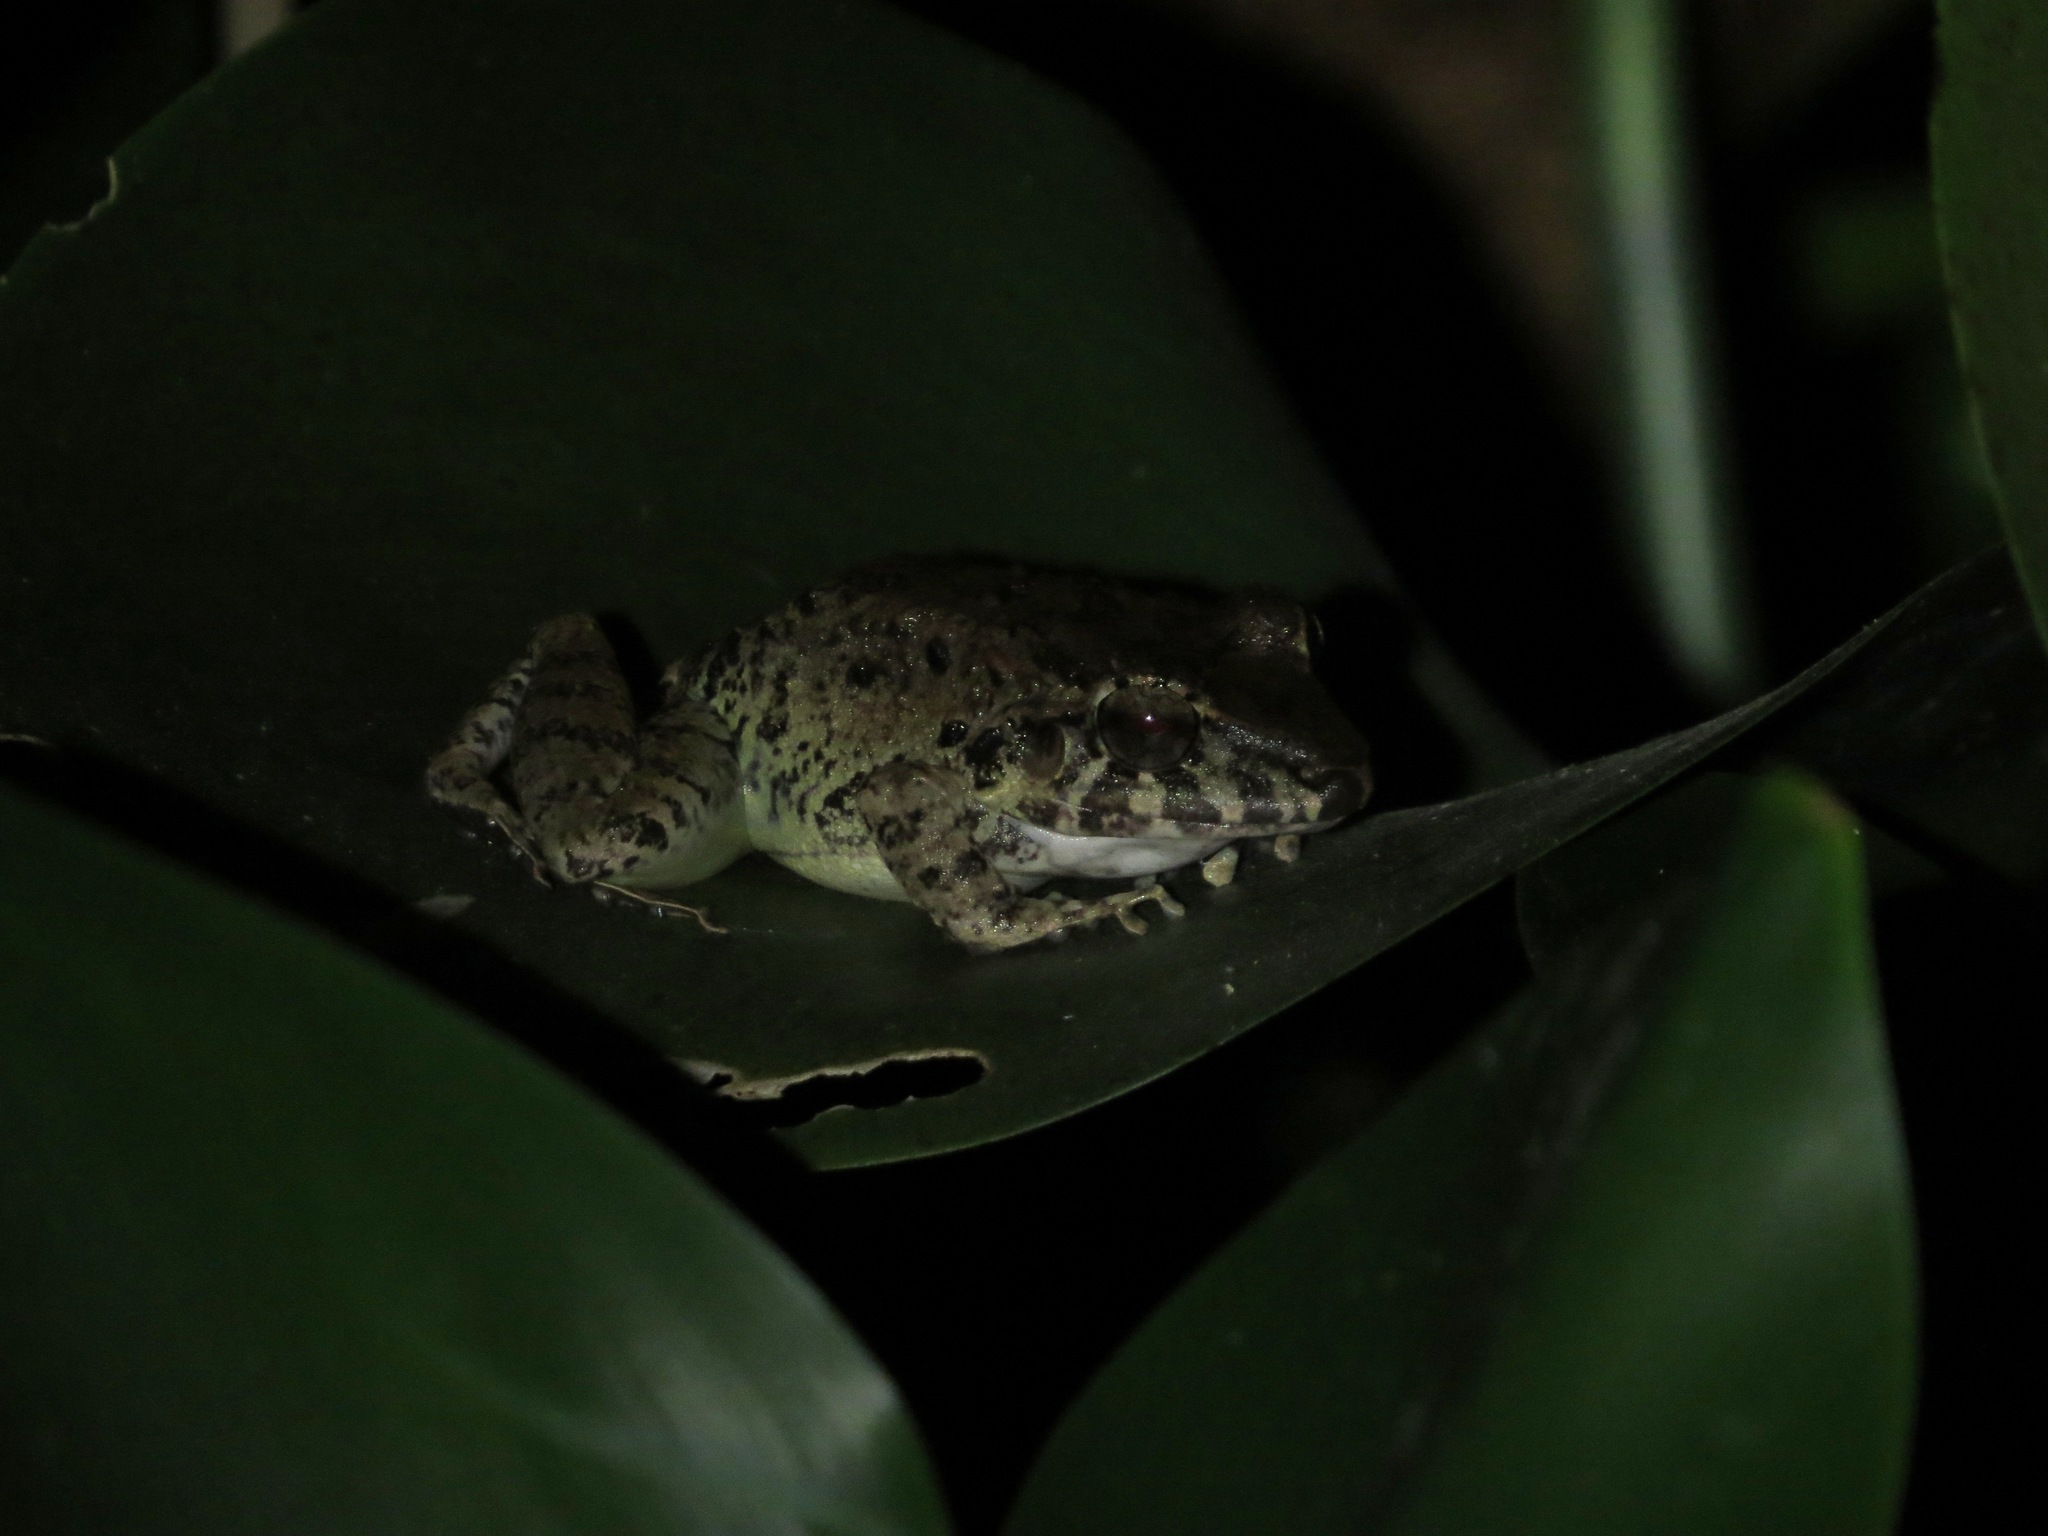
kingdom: Animalia
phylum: Chordata
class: Amphibia
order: Anura
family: Craugastoridae
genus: Craugastor
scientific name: Craugastor fitzingeri
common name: Fitzinger's robber frog
